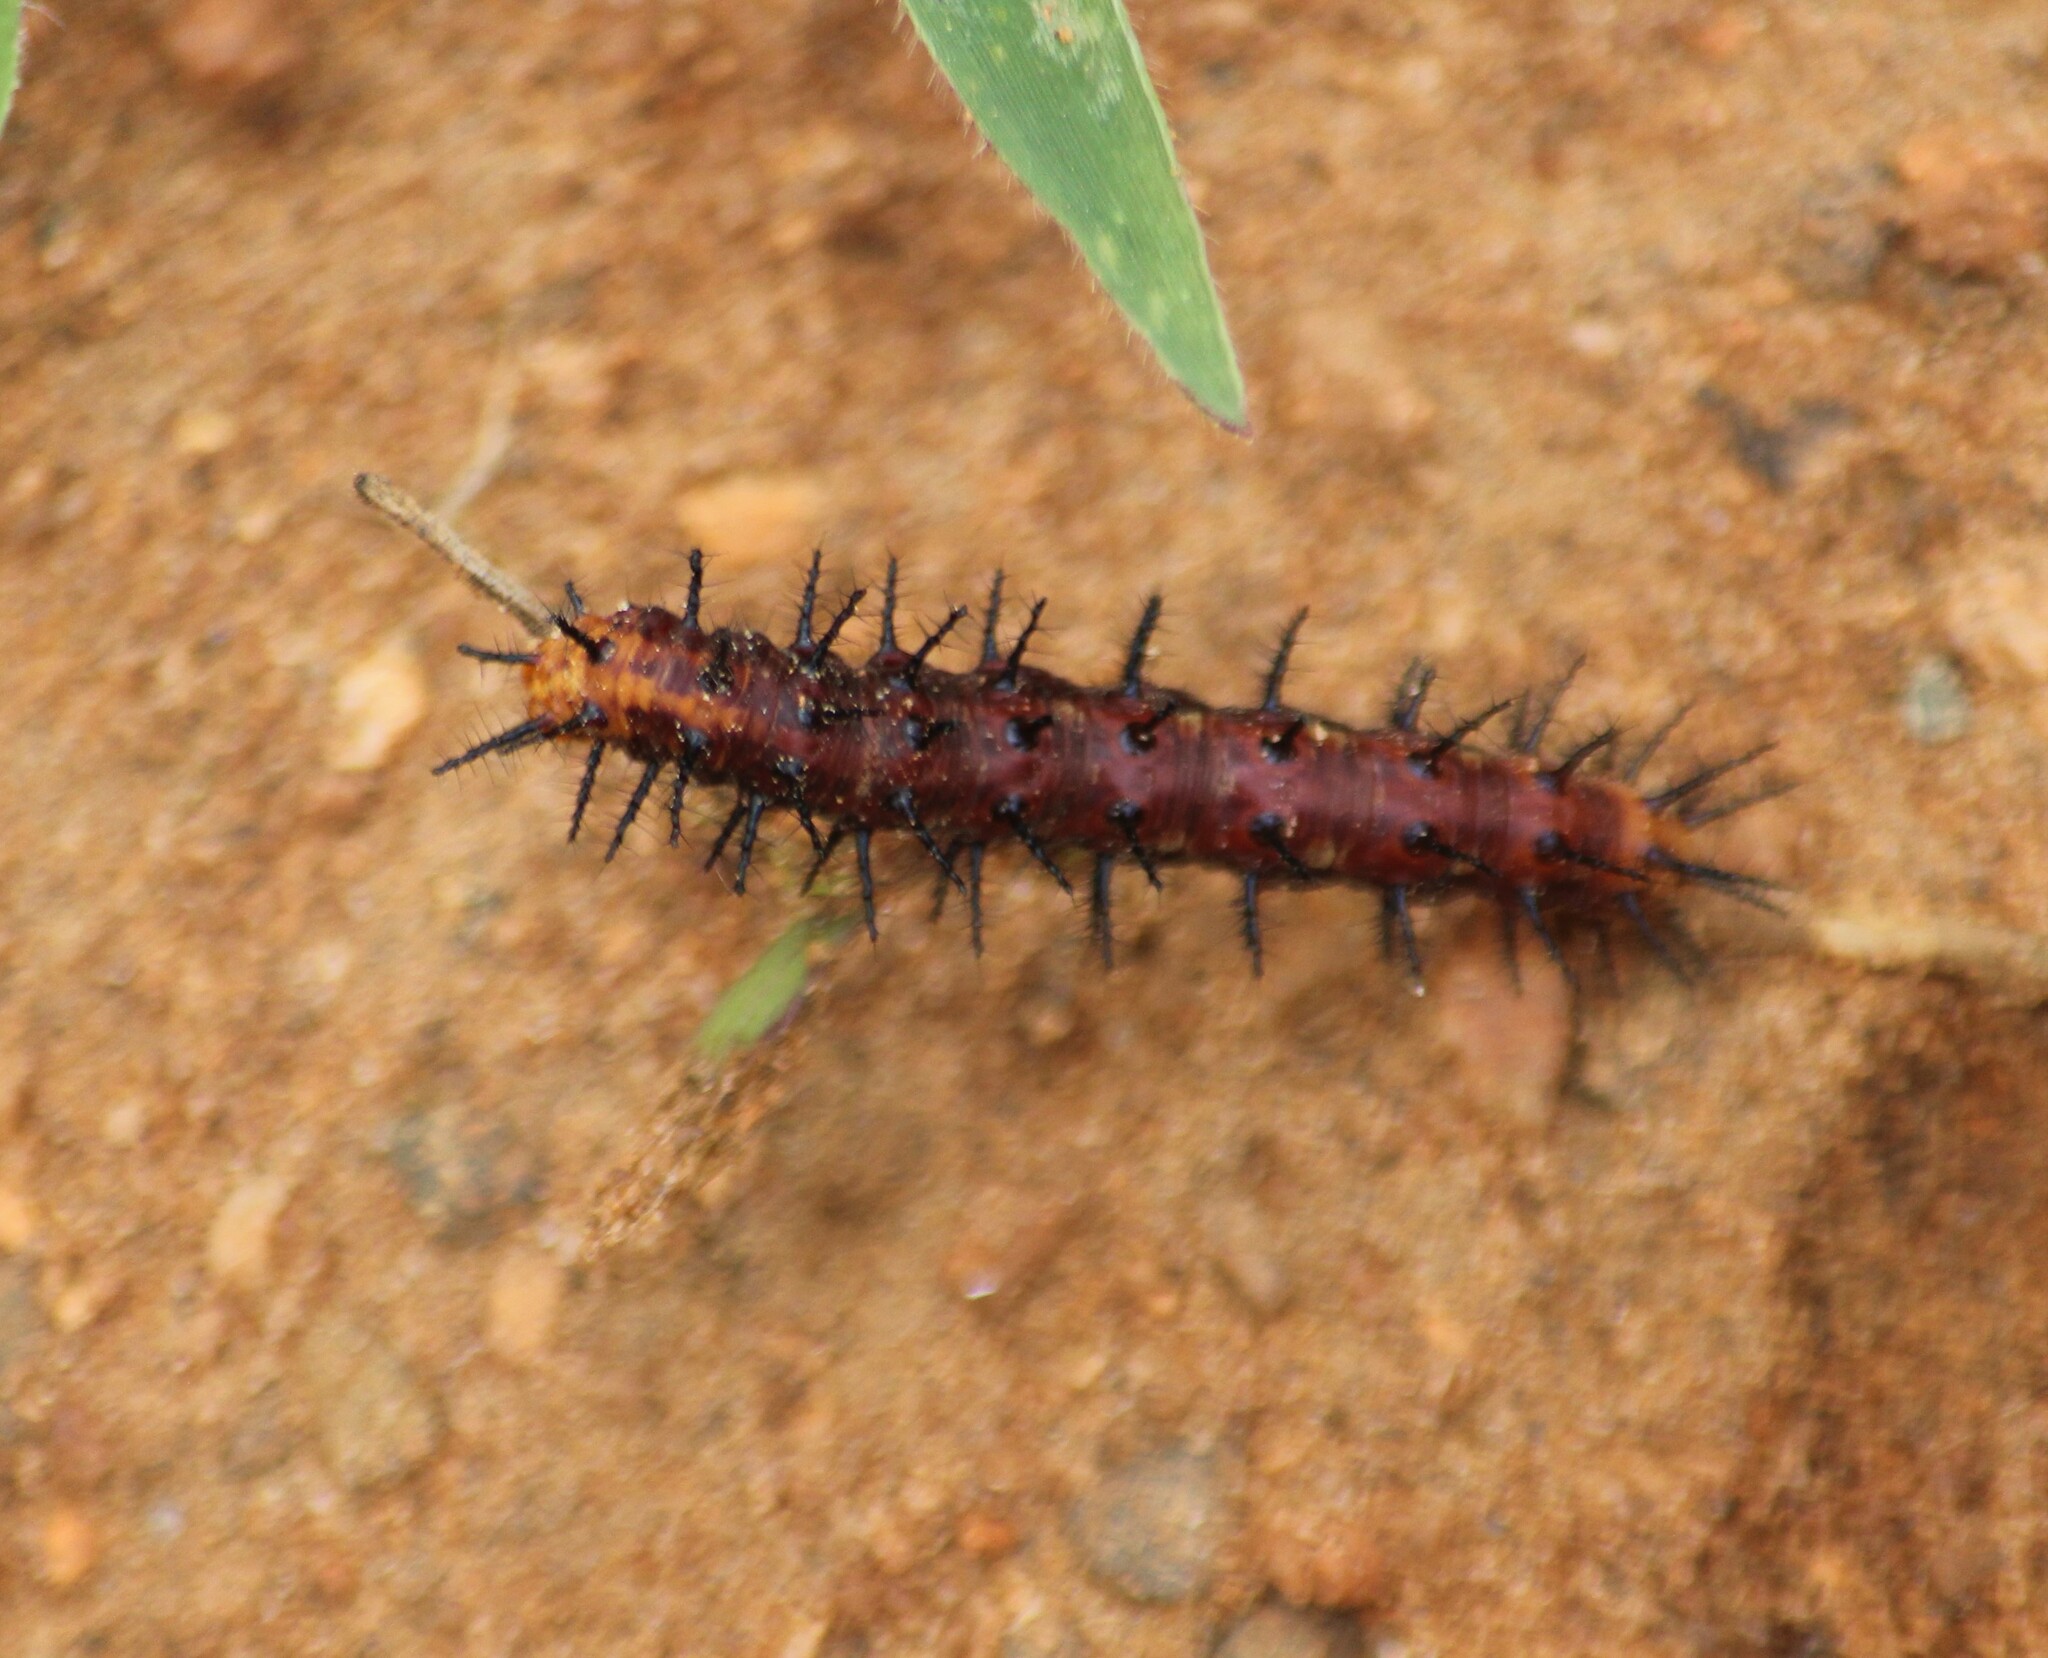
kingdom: Animalia
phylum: Arthropoda
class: Insecta
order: Lepidoptera
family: Nymphalidae
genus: Acraea
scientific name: Acraea terpsicore
